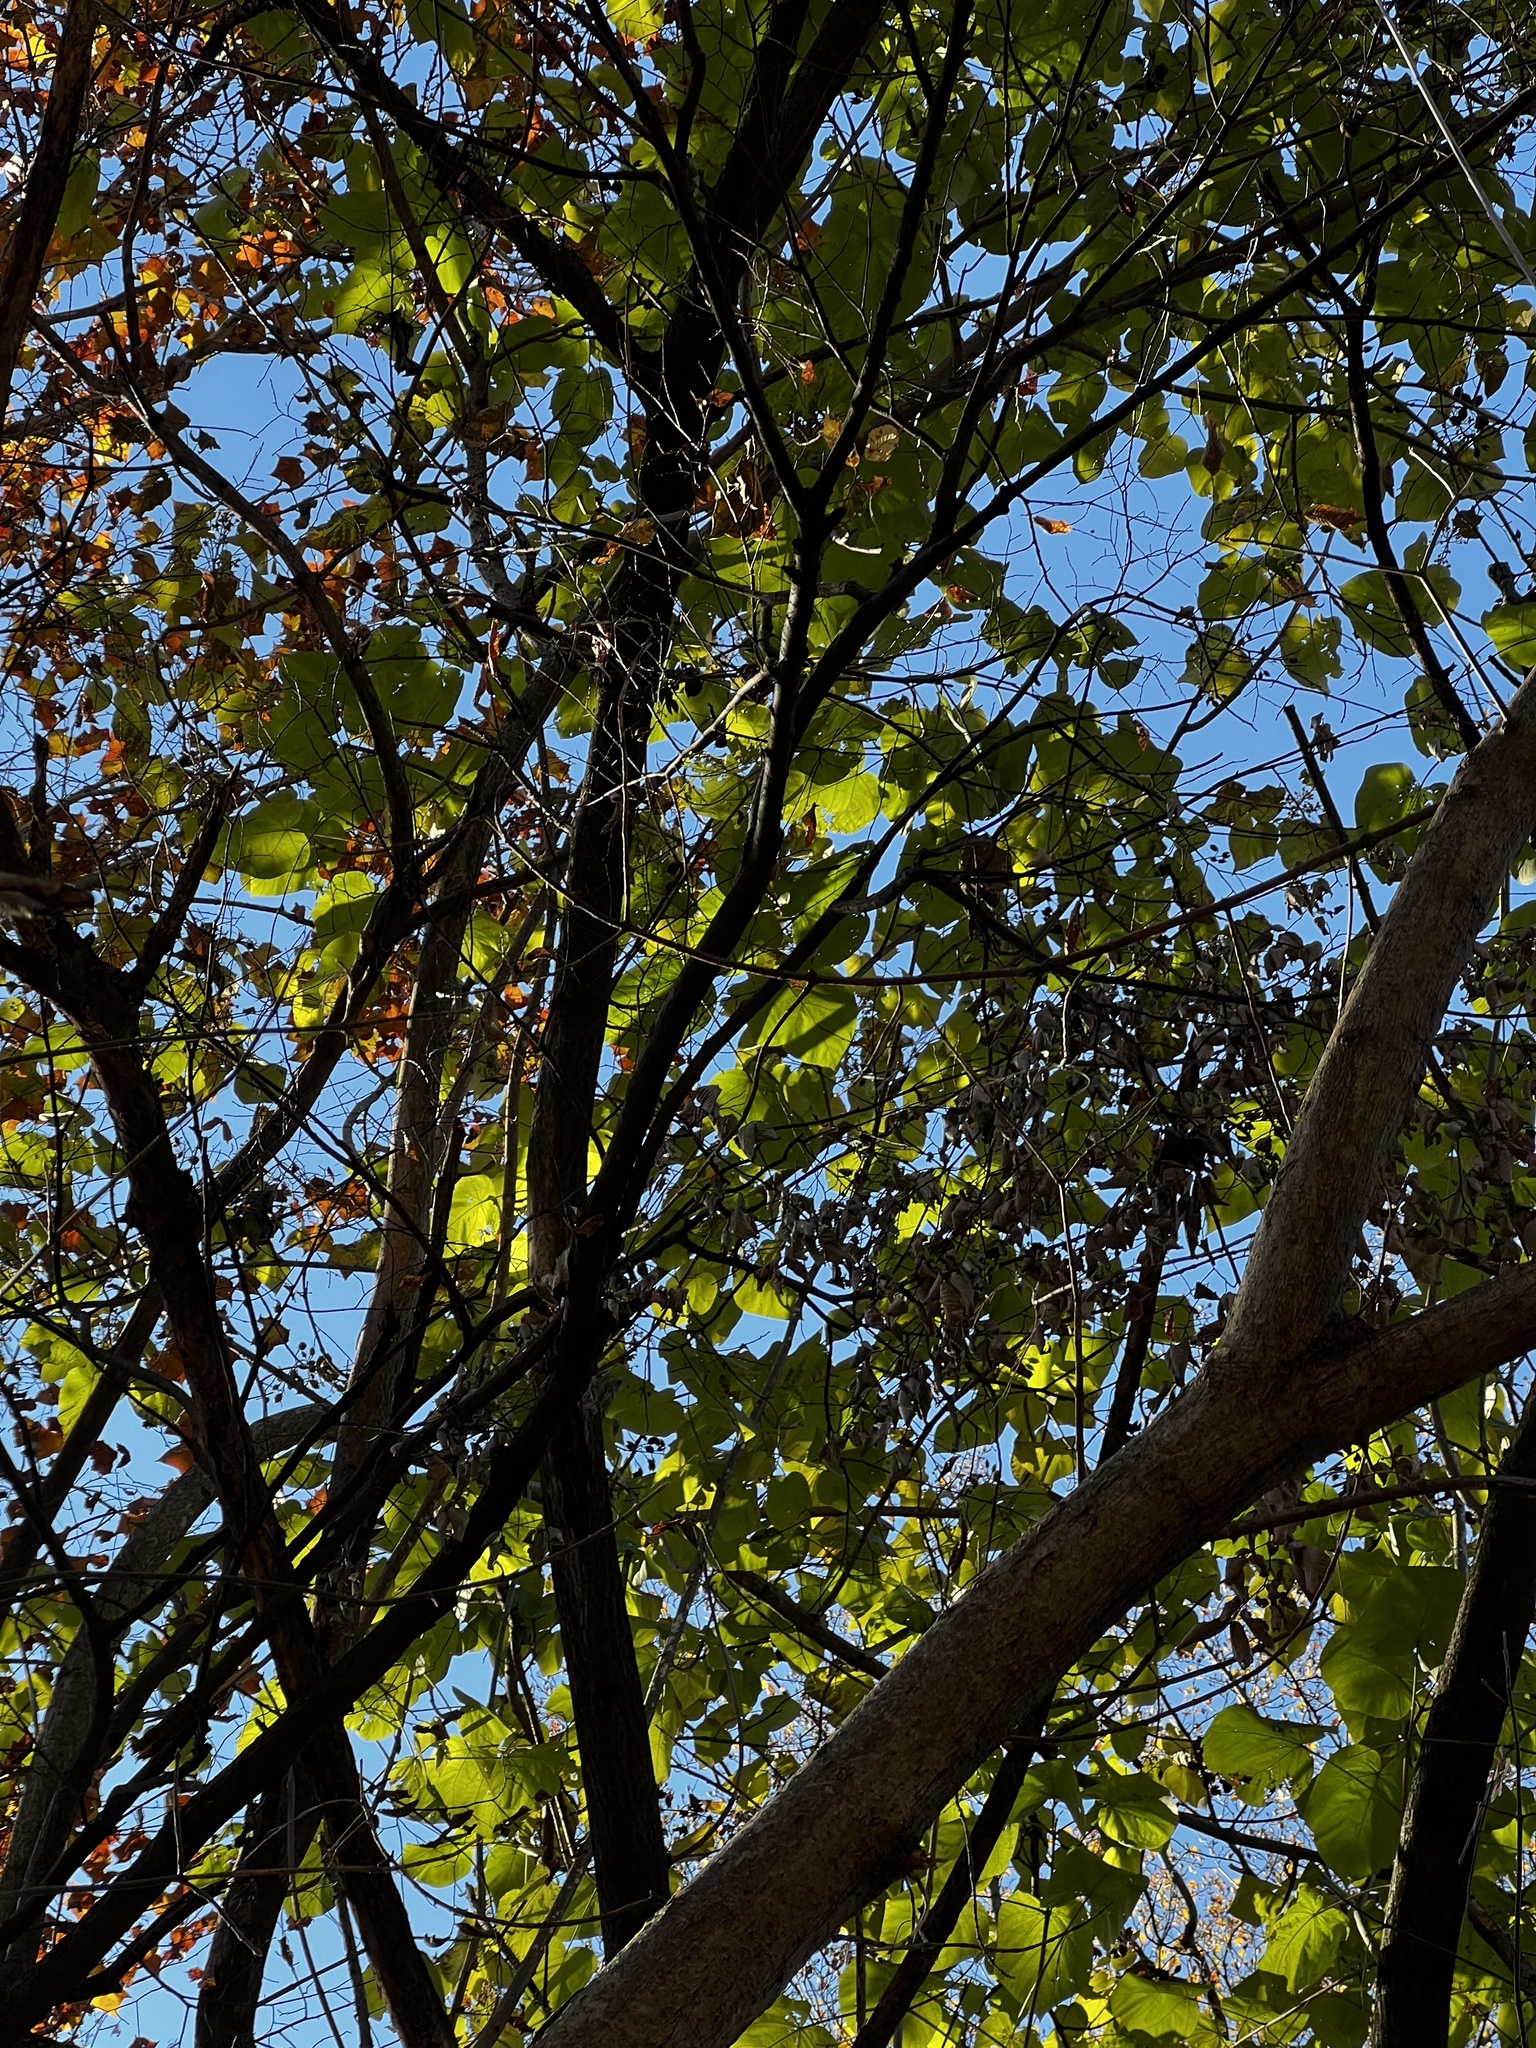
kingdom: Plantae
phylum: Tracheophyta
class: Magnoliopsida
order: Lamiales
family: Paulowniaceae
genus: Paulownia
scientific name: Paulownia tomentosa
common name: Foxglove-tree
